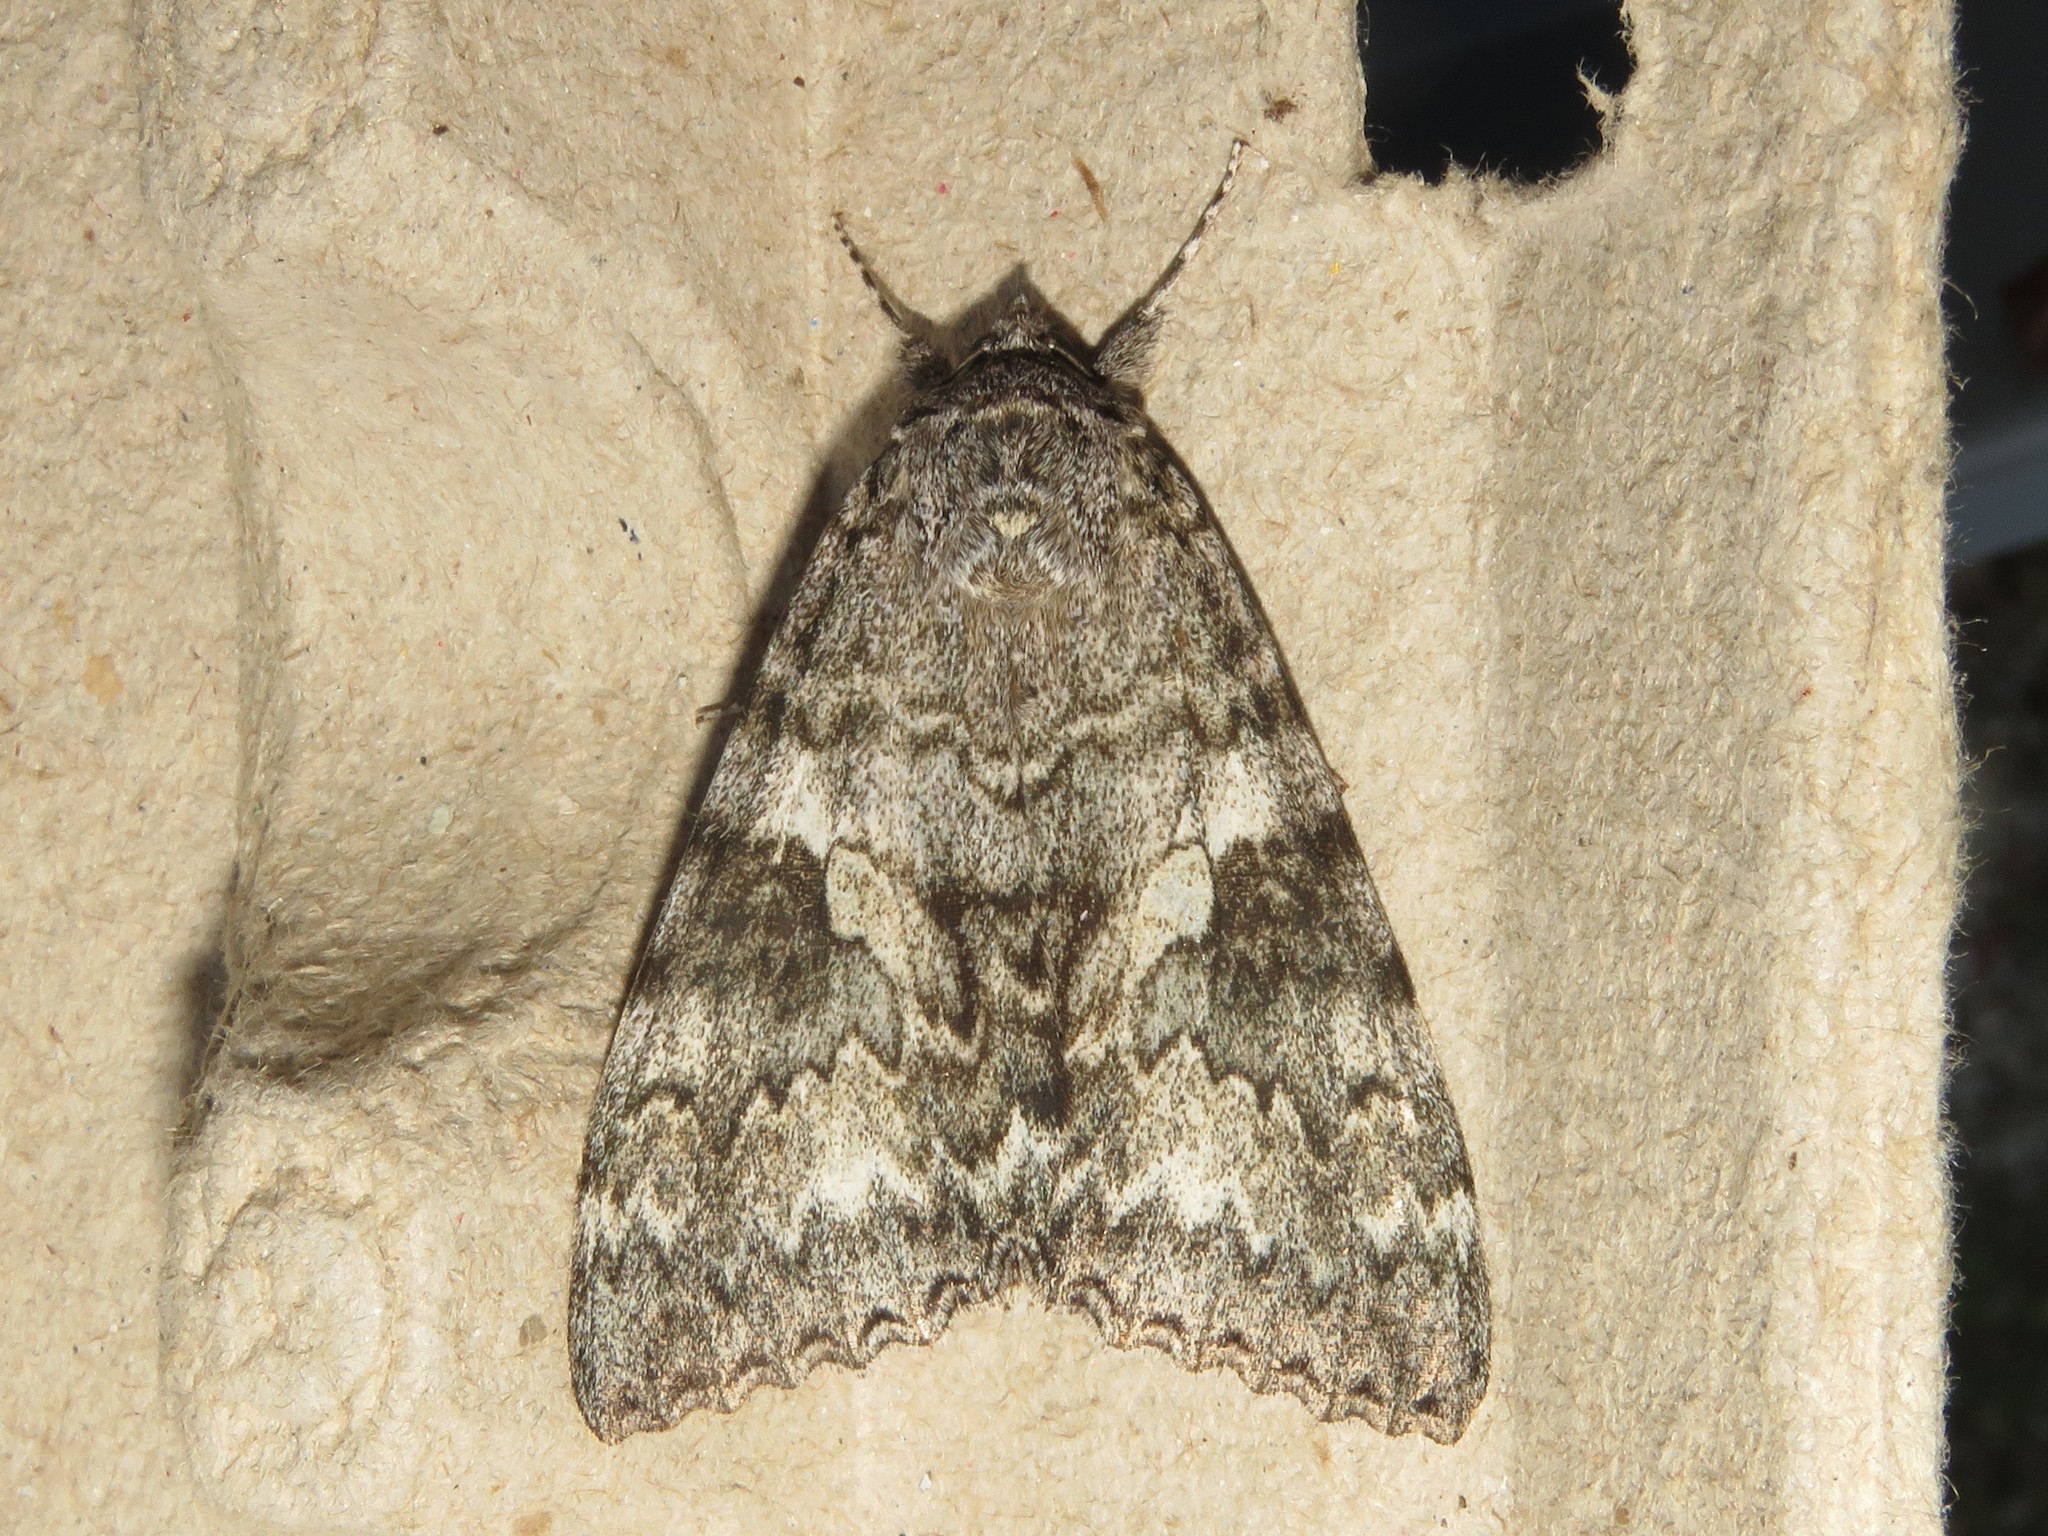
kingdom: Animalia
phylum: Arthropoda
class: Insecta
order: Lepidoptera
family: Erebidae
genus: Catocala
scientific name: Catocala unijuga
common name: Once-married underwing
